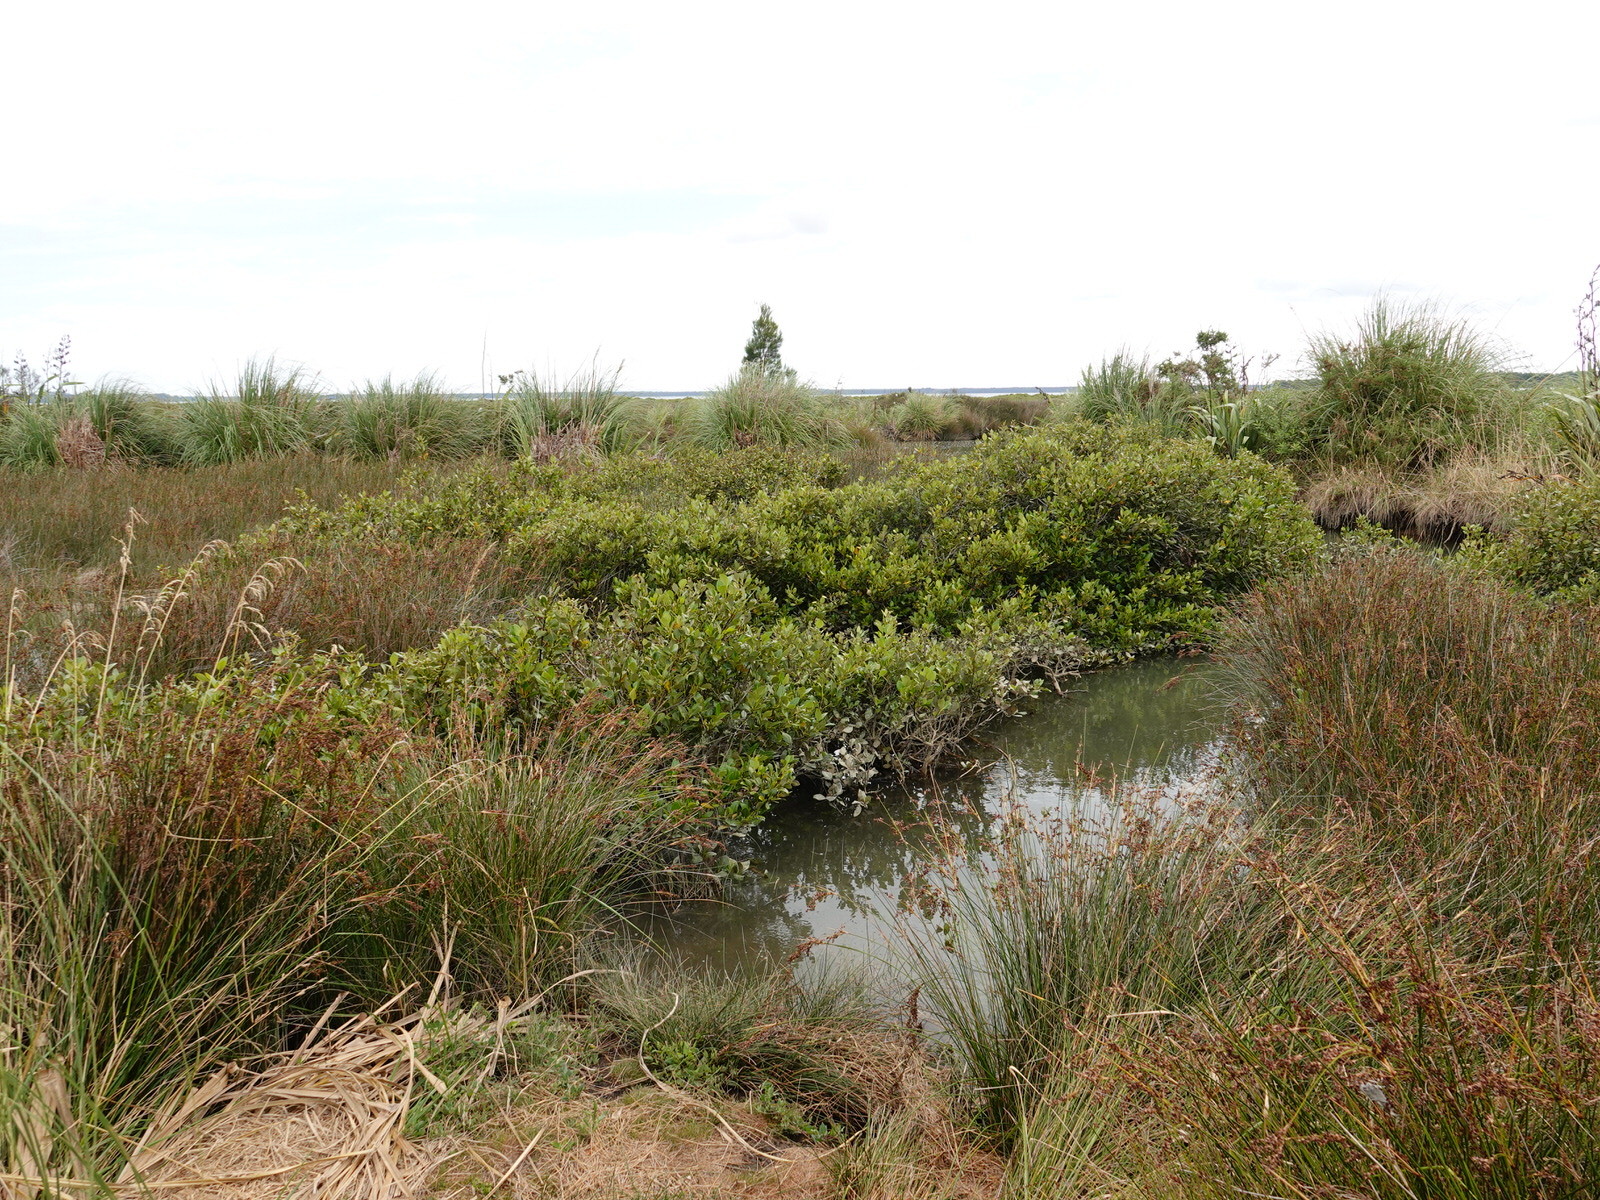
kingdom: Plantae
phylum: Tracheophyta
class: Magnoliopsida
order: Lamiales
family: Acanthaceae
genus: Avicennia
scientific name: Avicennia marina
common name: Gray mangrove
